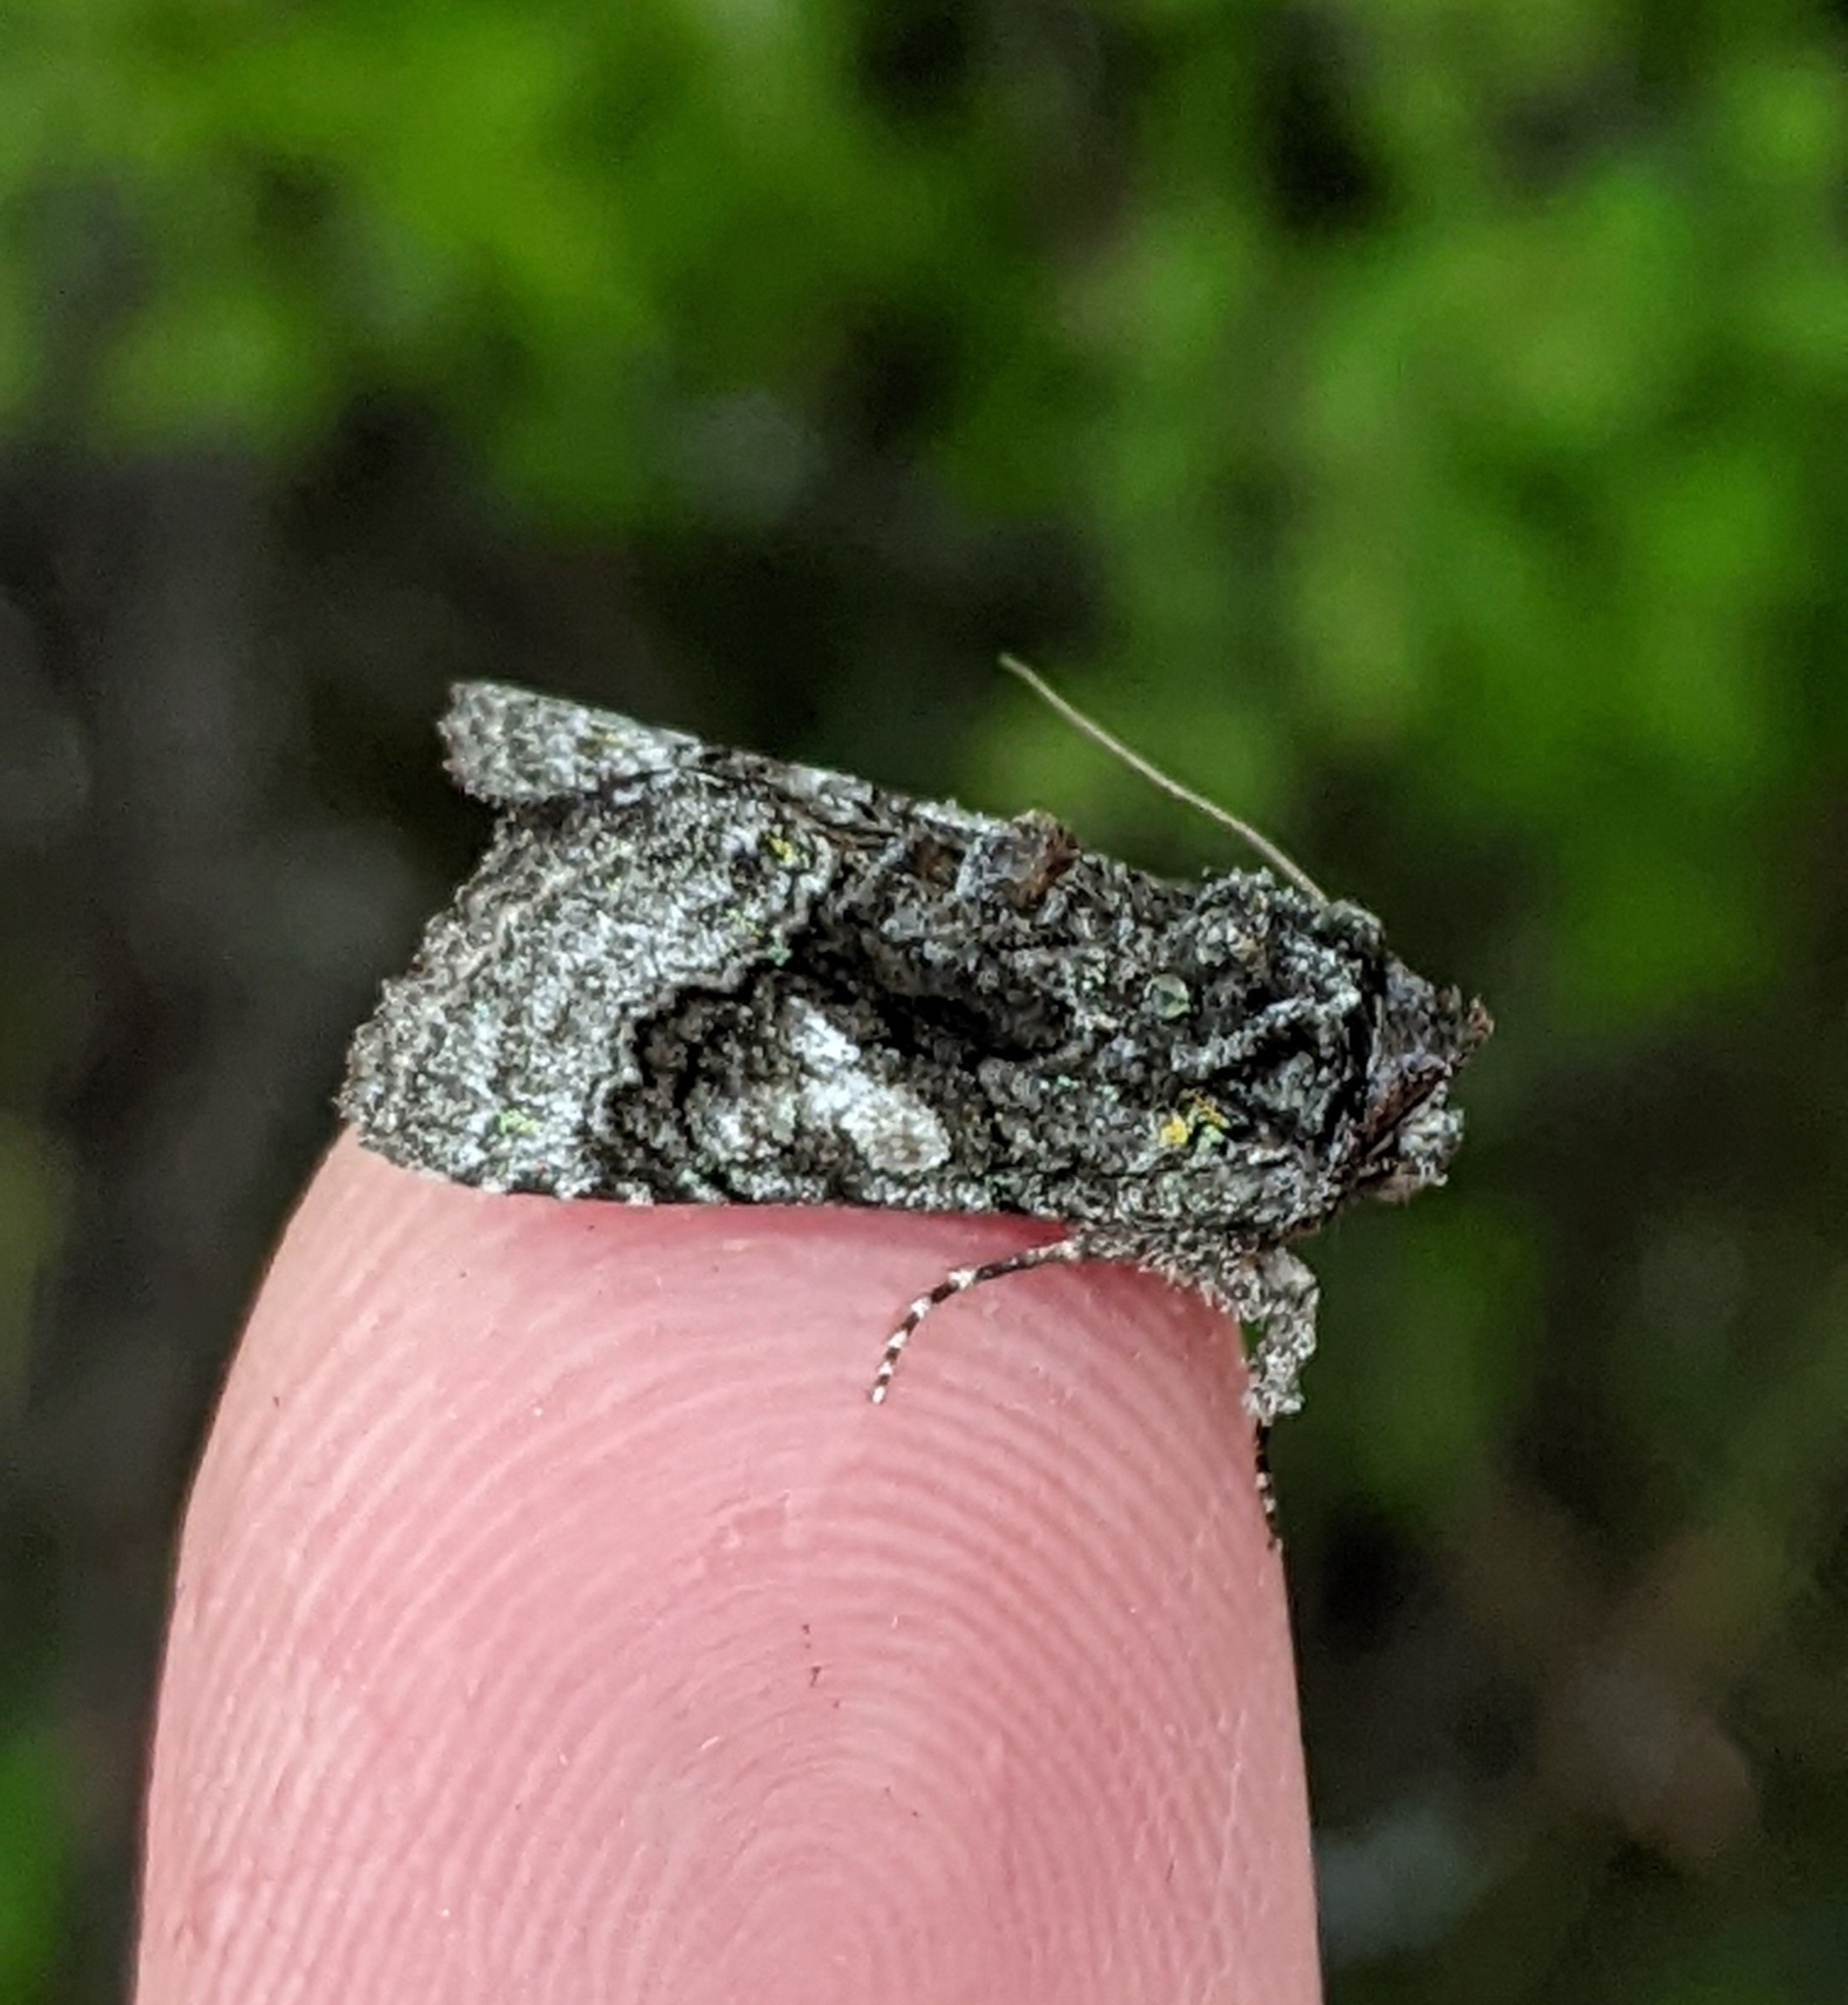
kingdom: Animalia
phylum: Arthropoda
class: Insecta
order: Lepidoptera
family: Noctuidae
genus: Behrensia
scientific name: Behrensia conchiformis
